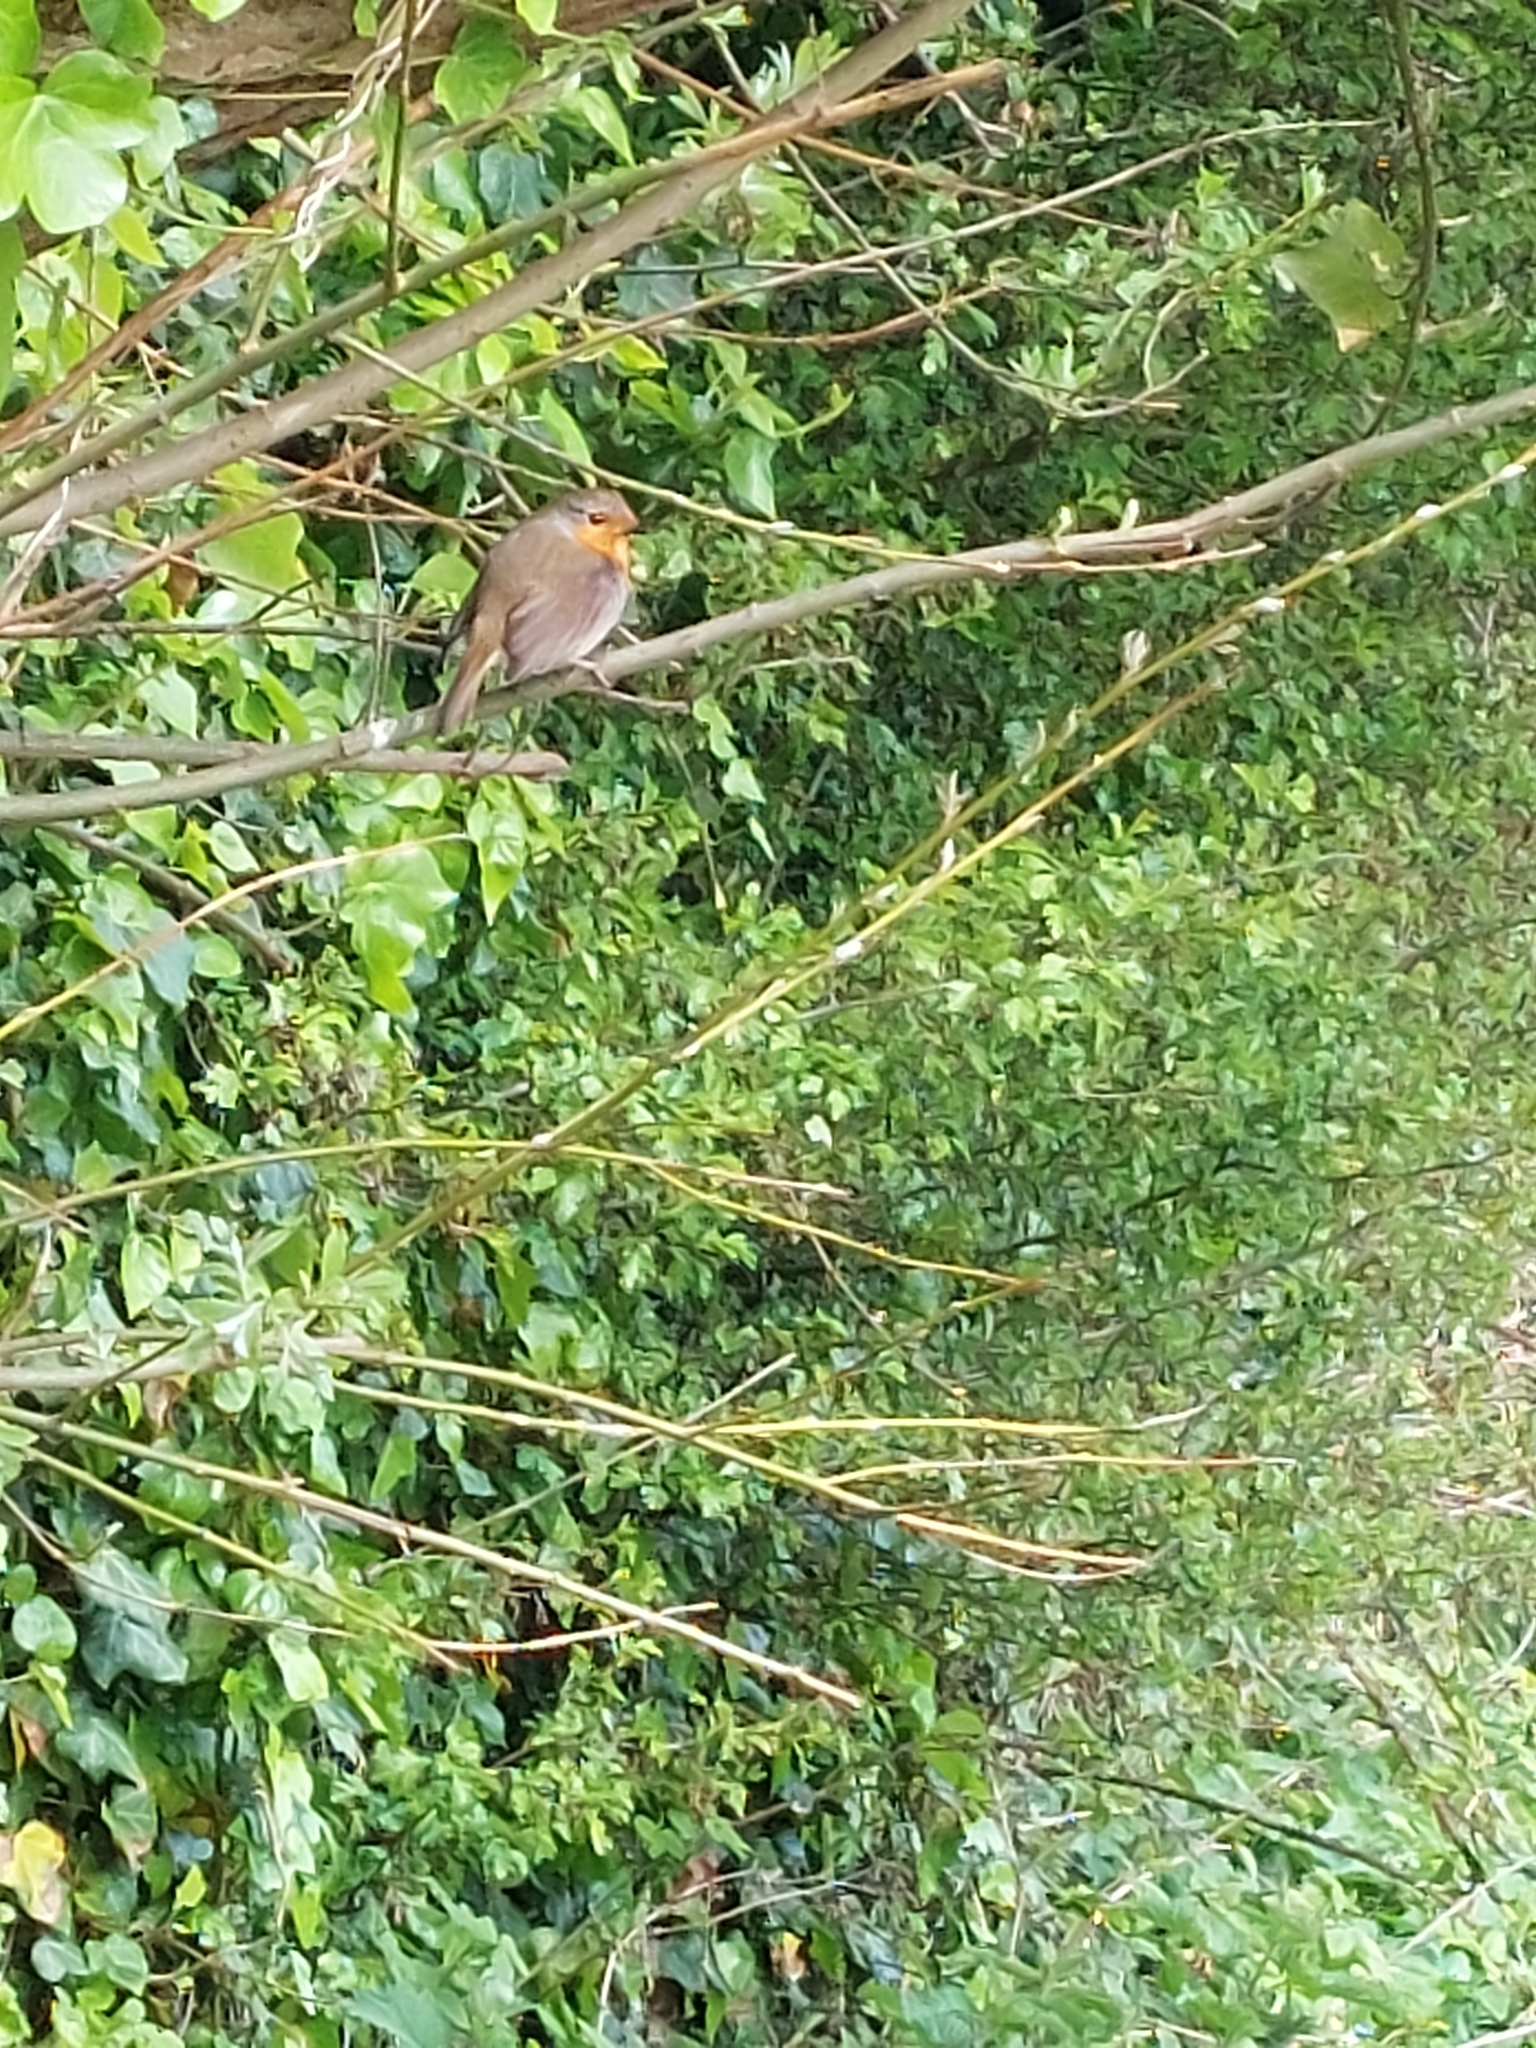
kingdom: Animalia
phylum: Chordata
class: Aves
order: Passeriformes
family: Muscicapidae
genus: Erithacus
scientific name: Erithacus rubecula
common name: European robin
